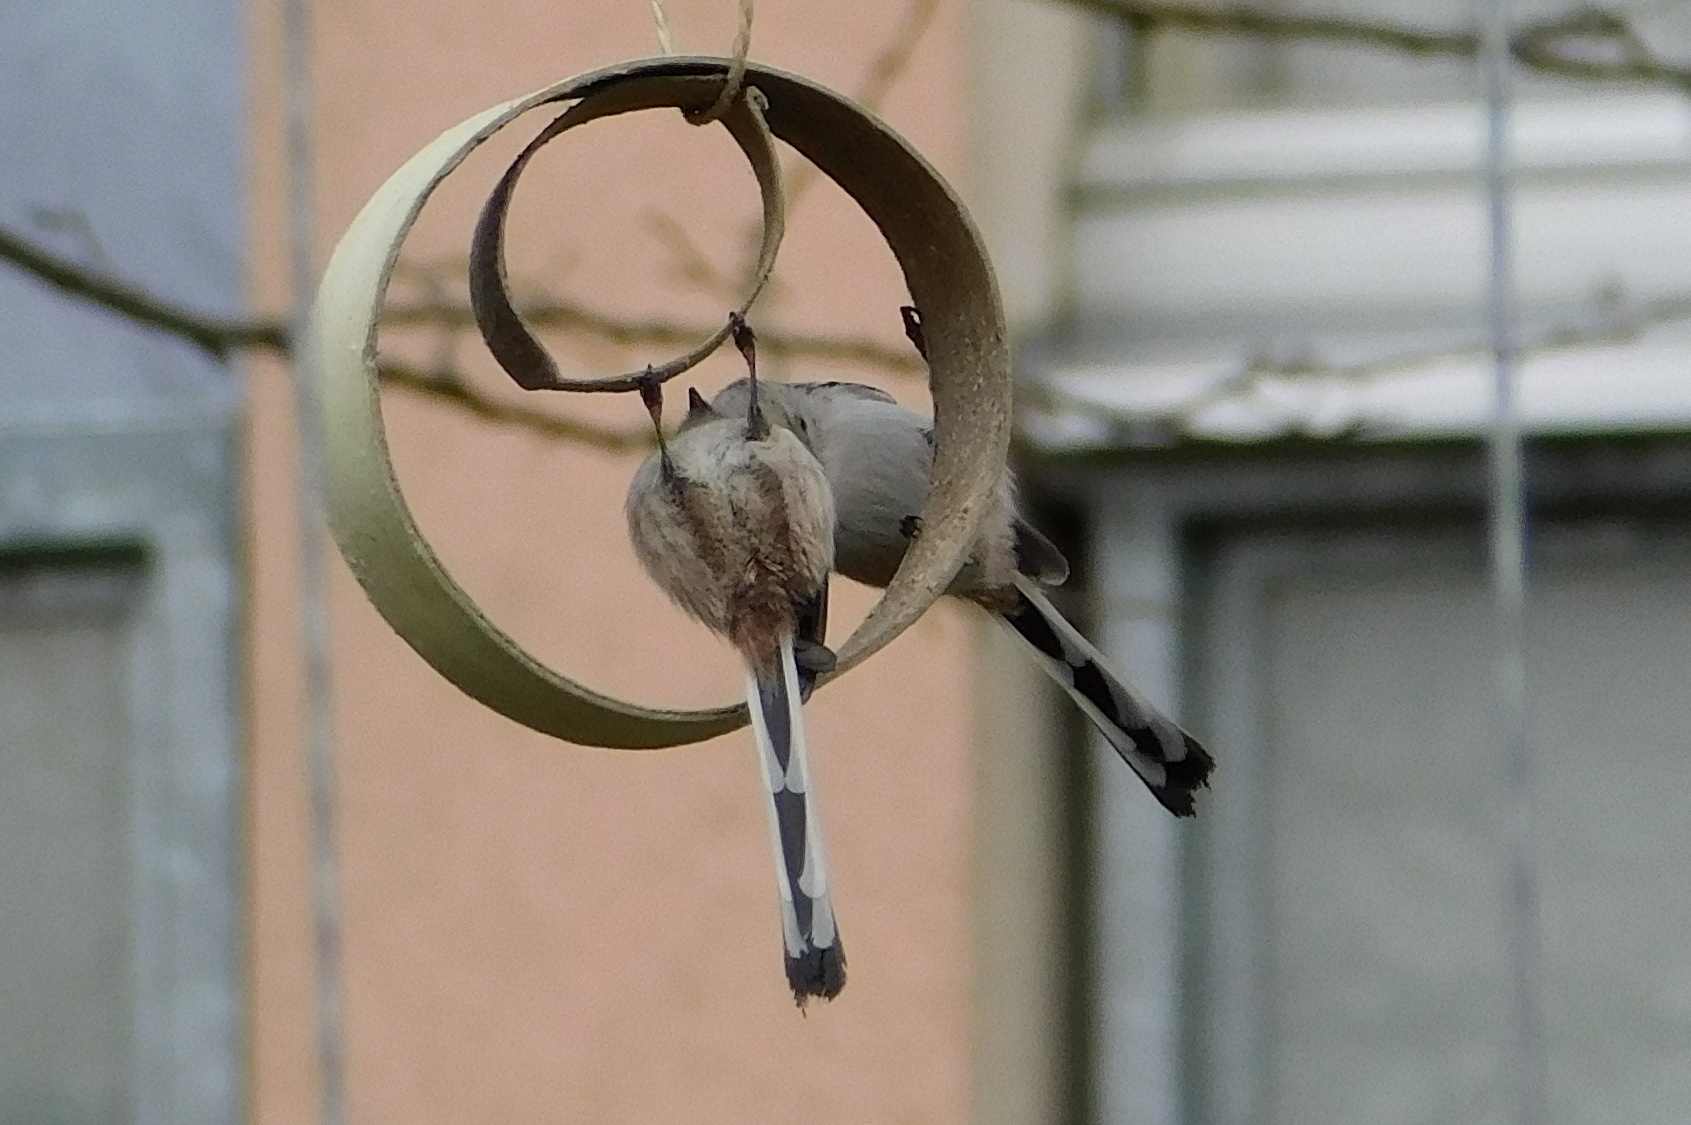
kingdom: Animalia
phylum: Chordata
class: Aves
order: Passeriformes
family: Aegithalidae
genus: Aegithalos
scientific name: Aegithalos caudatus
